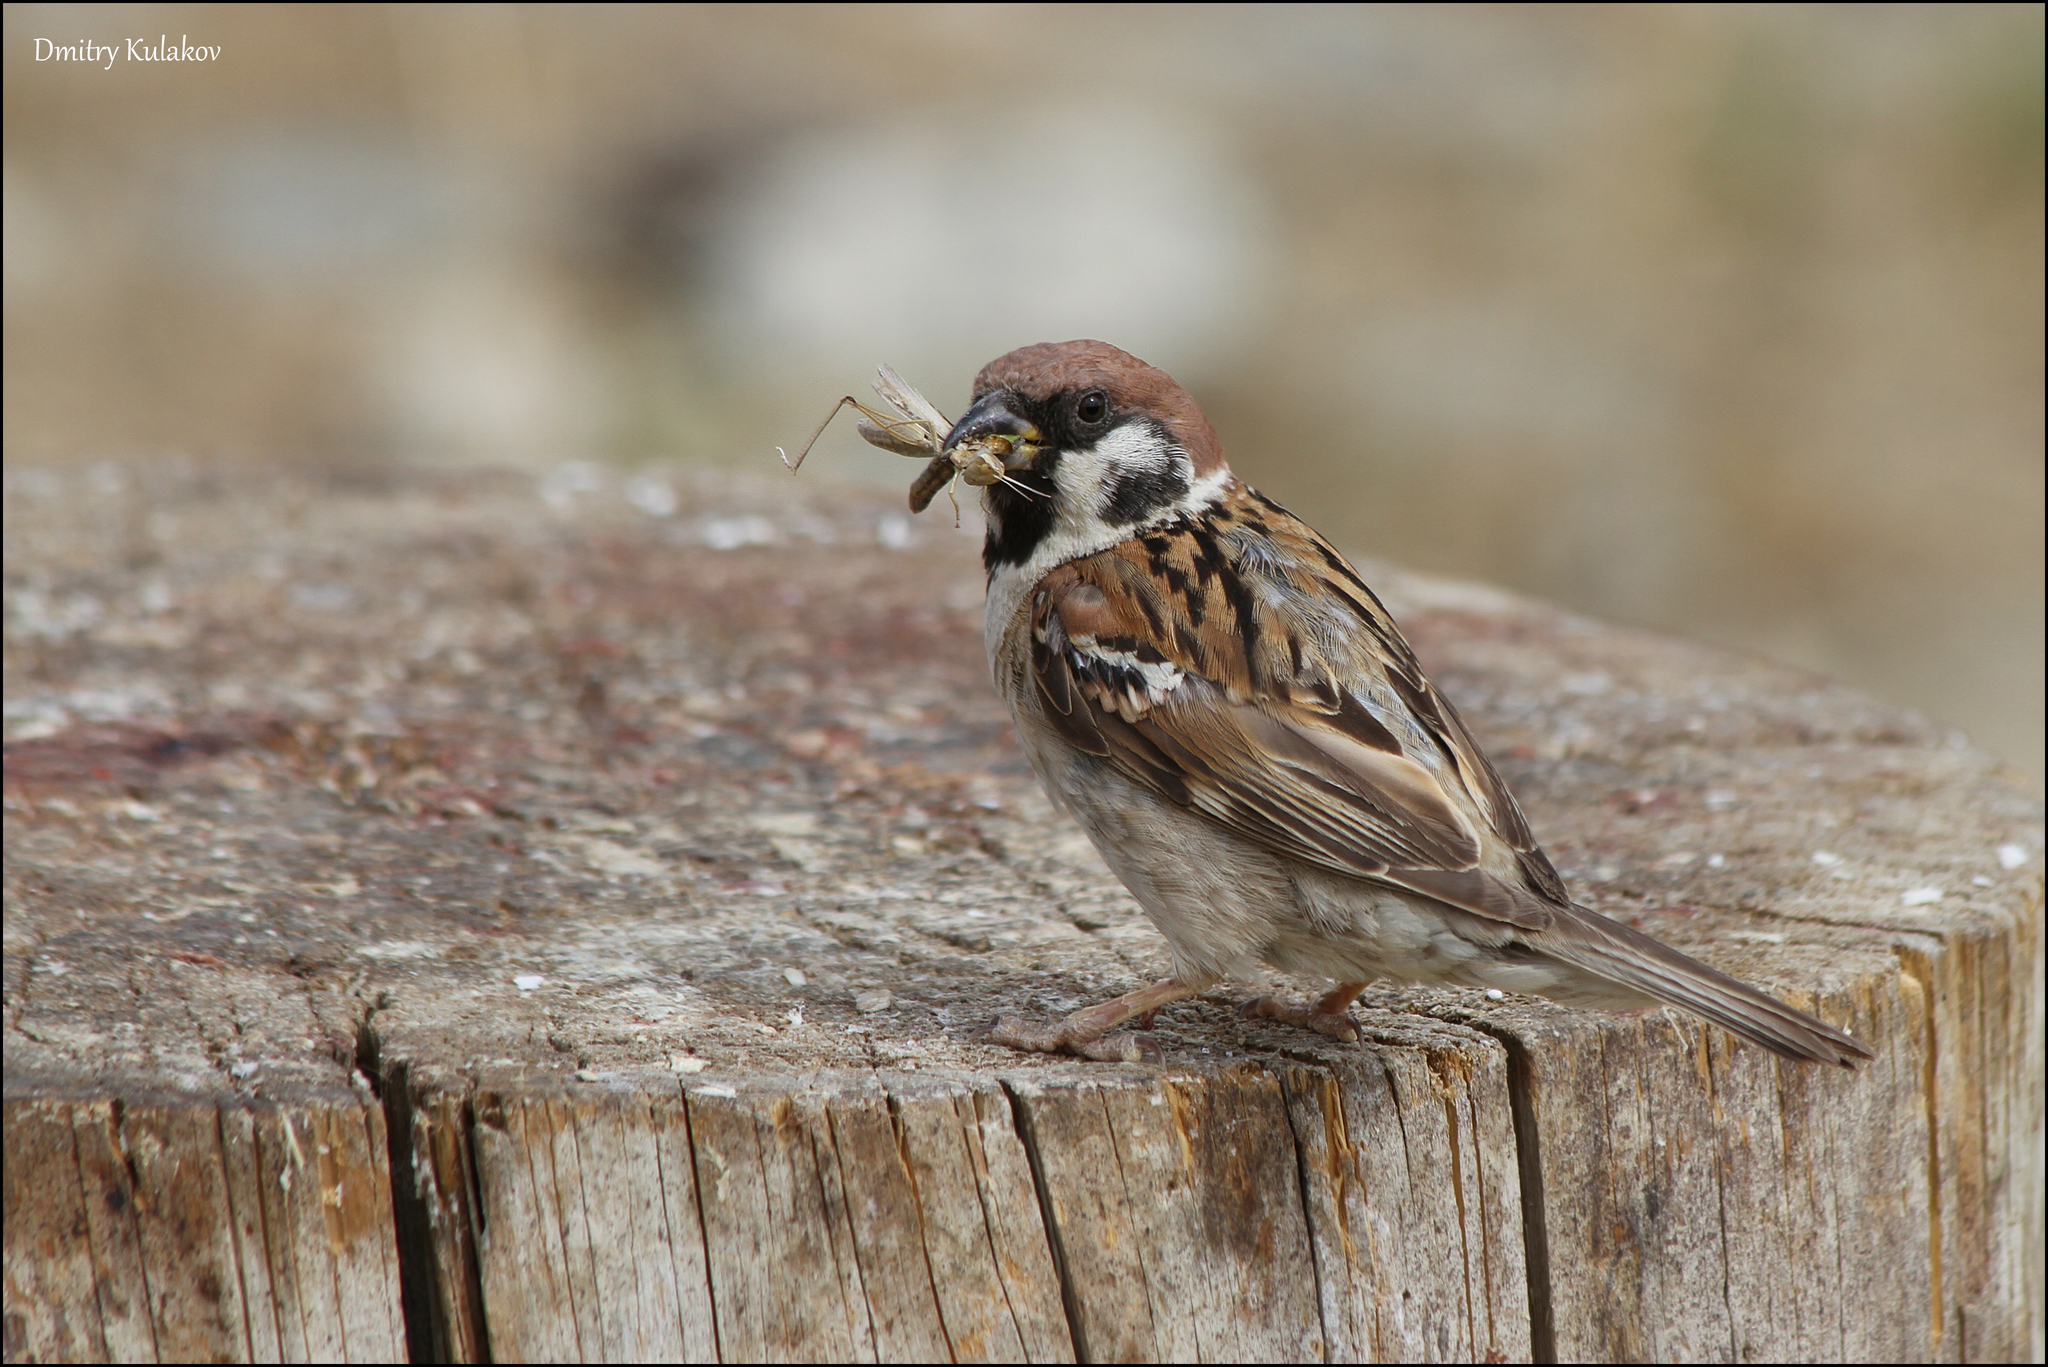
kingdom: Animalia
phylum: Chordata
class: Aves
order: Passeriformes
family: Passeridae
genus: Passer
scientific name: Passer montanus
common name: Eurasian tree sparrow
